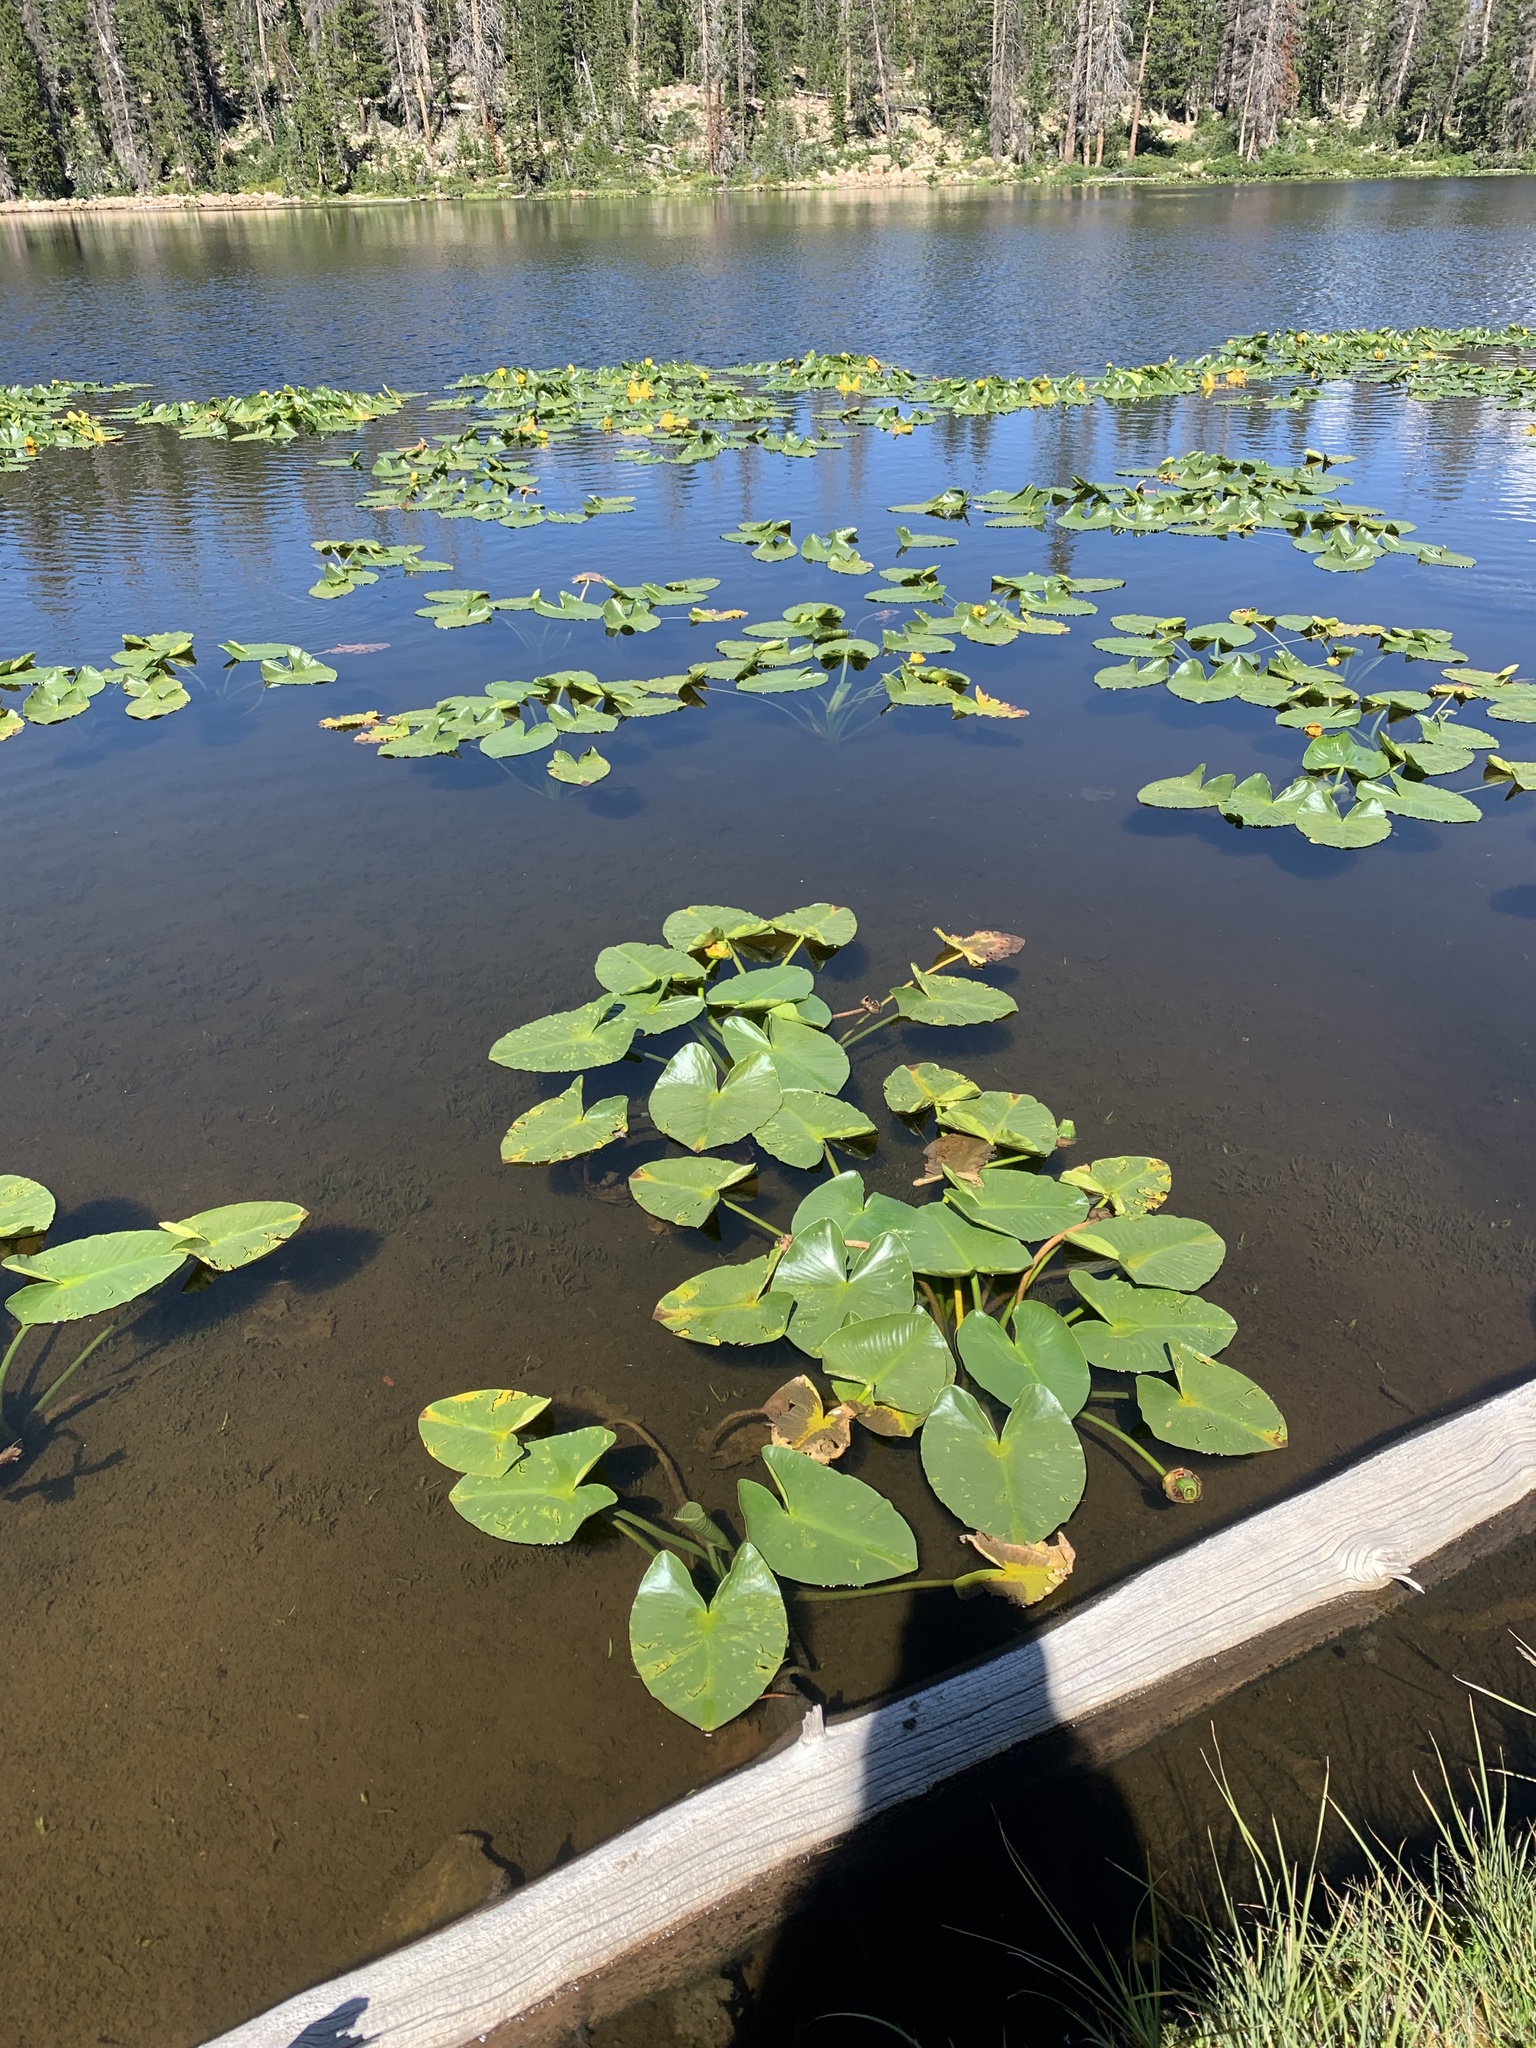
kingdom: Plantae
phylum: Tracheophyta
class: Magnoliopsida
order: Nymphaeales
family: Nymphaeaceae
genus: Nuphar
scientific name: Nuphar polysepala
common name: Rocky mountain cow-lily
